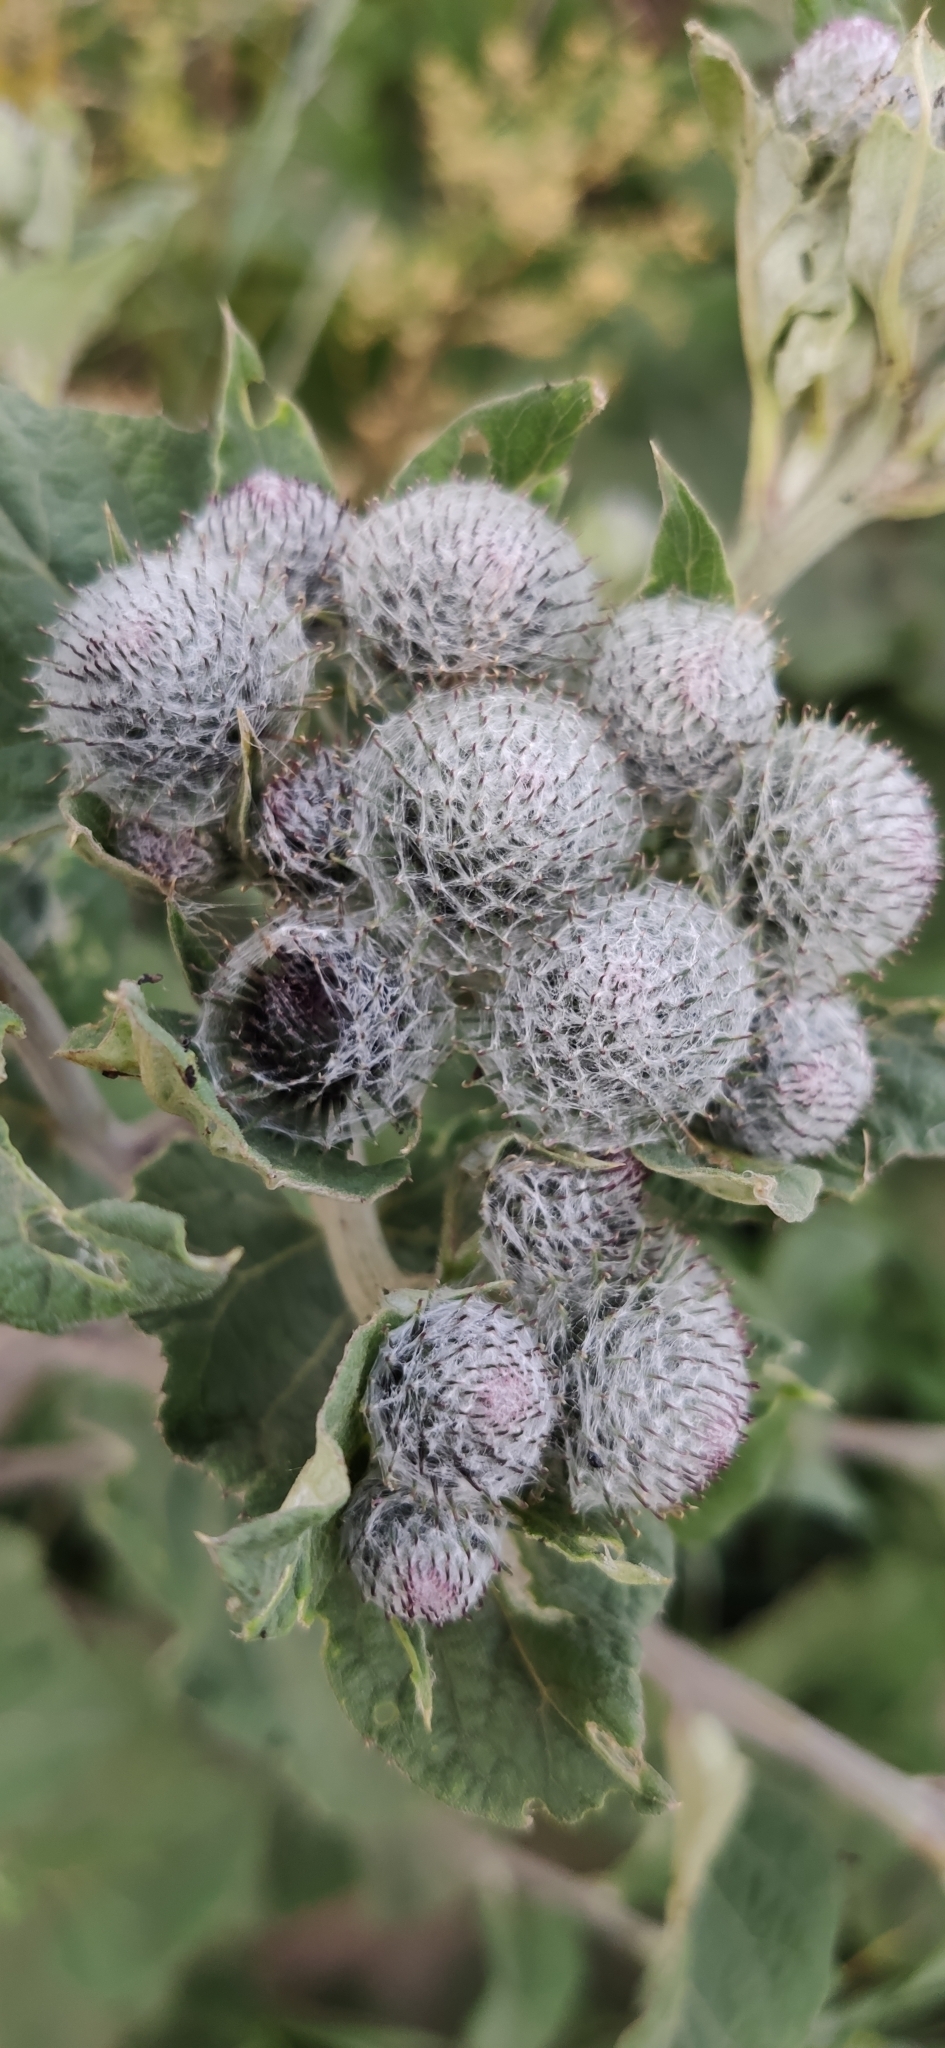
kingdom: Plantae
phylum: Tracheophyta
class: Magnoliopsida
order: Asterales
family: Asteraceae
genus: Arctium
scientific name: Arctium tomentosum
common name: Woolly burdock
